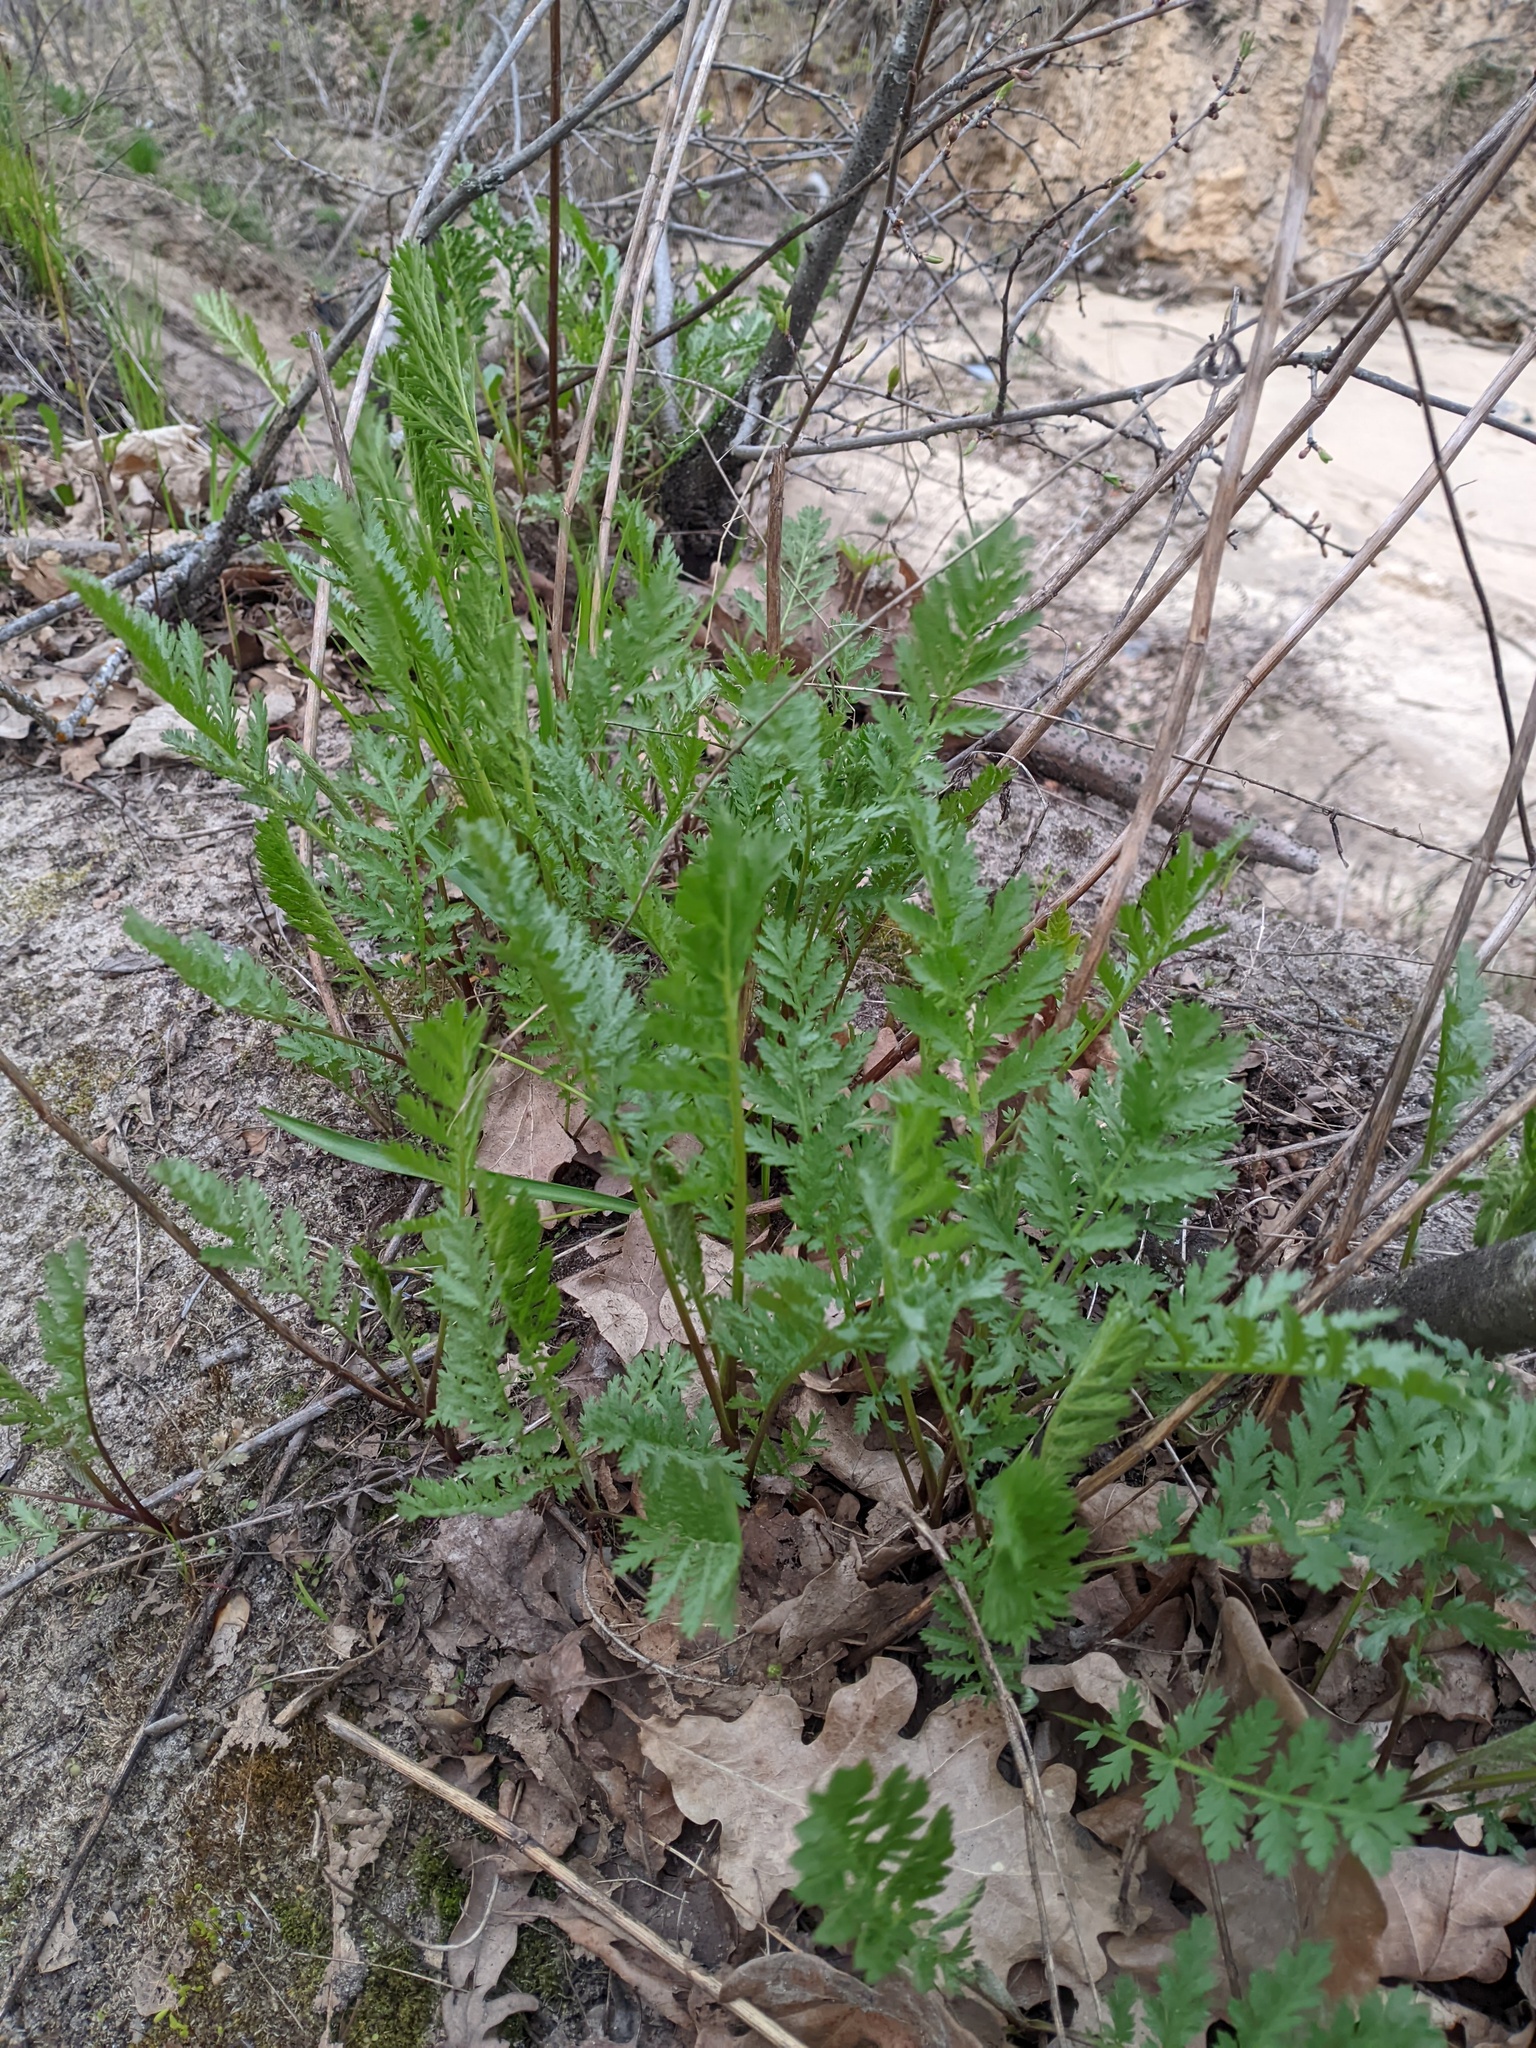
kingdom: Plantae
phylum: Tracheophyta
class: Magnoliopsida
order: Asterales
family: Asteraceae
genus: Tanacetum
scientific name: Tanacetum vulgare
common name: Common tansy
